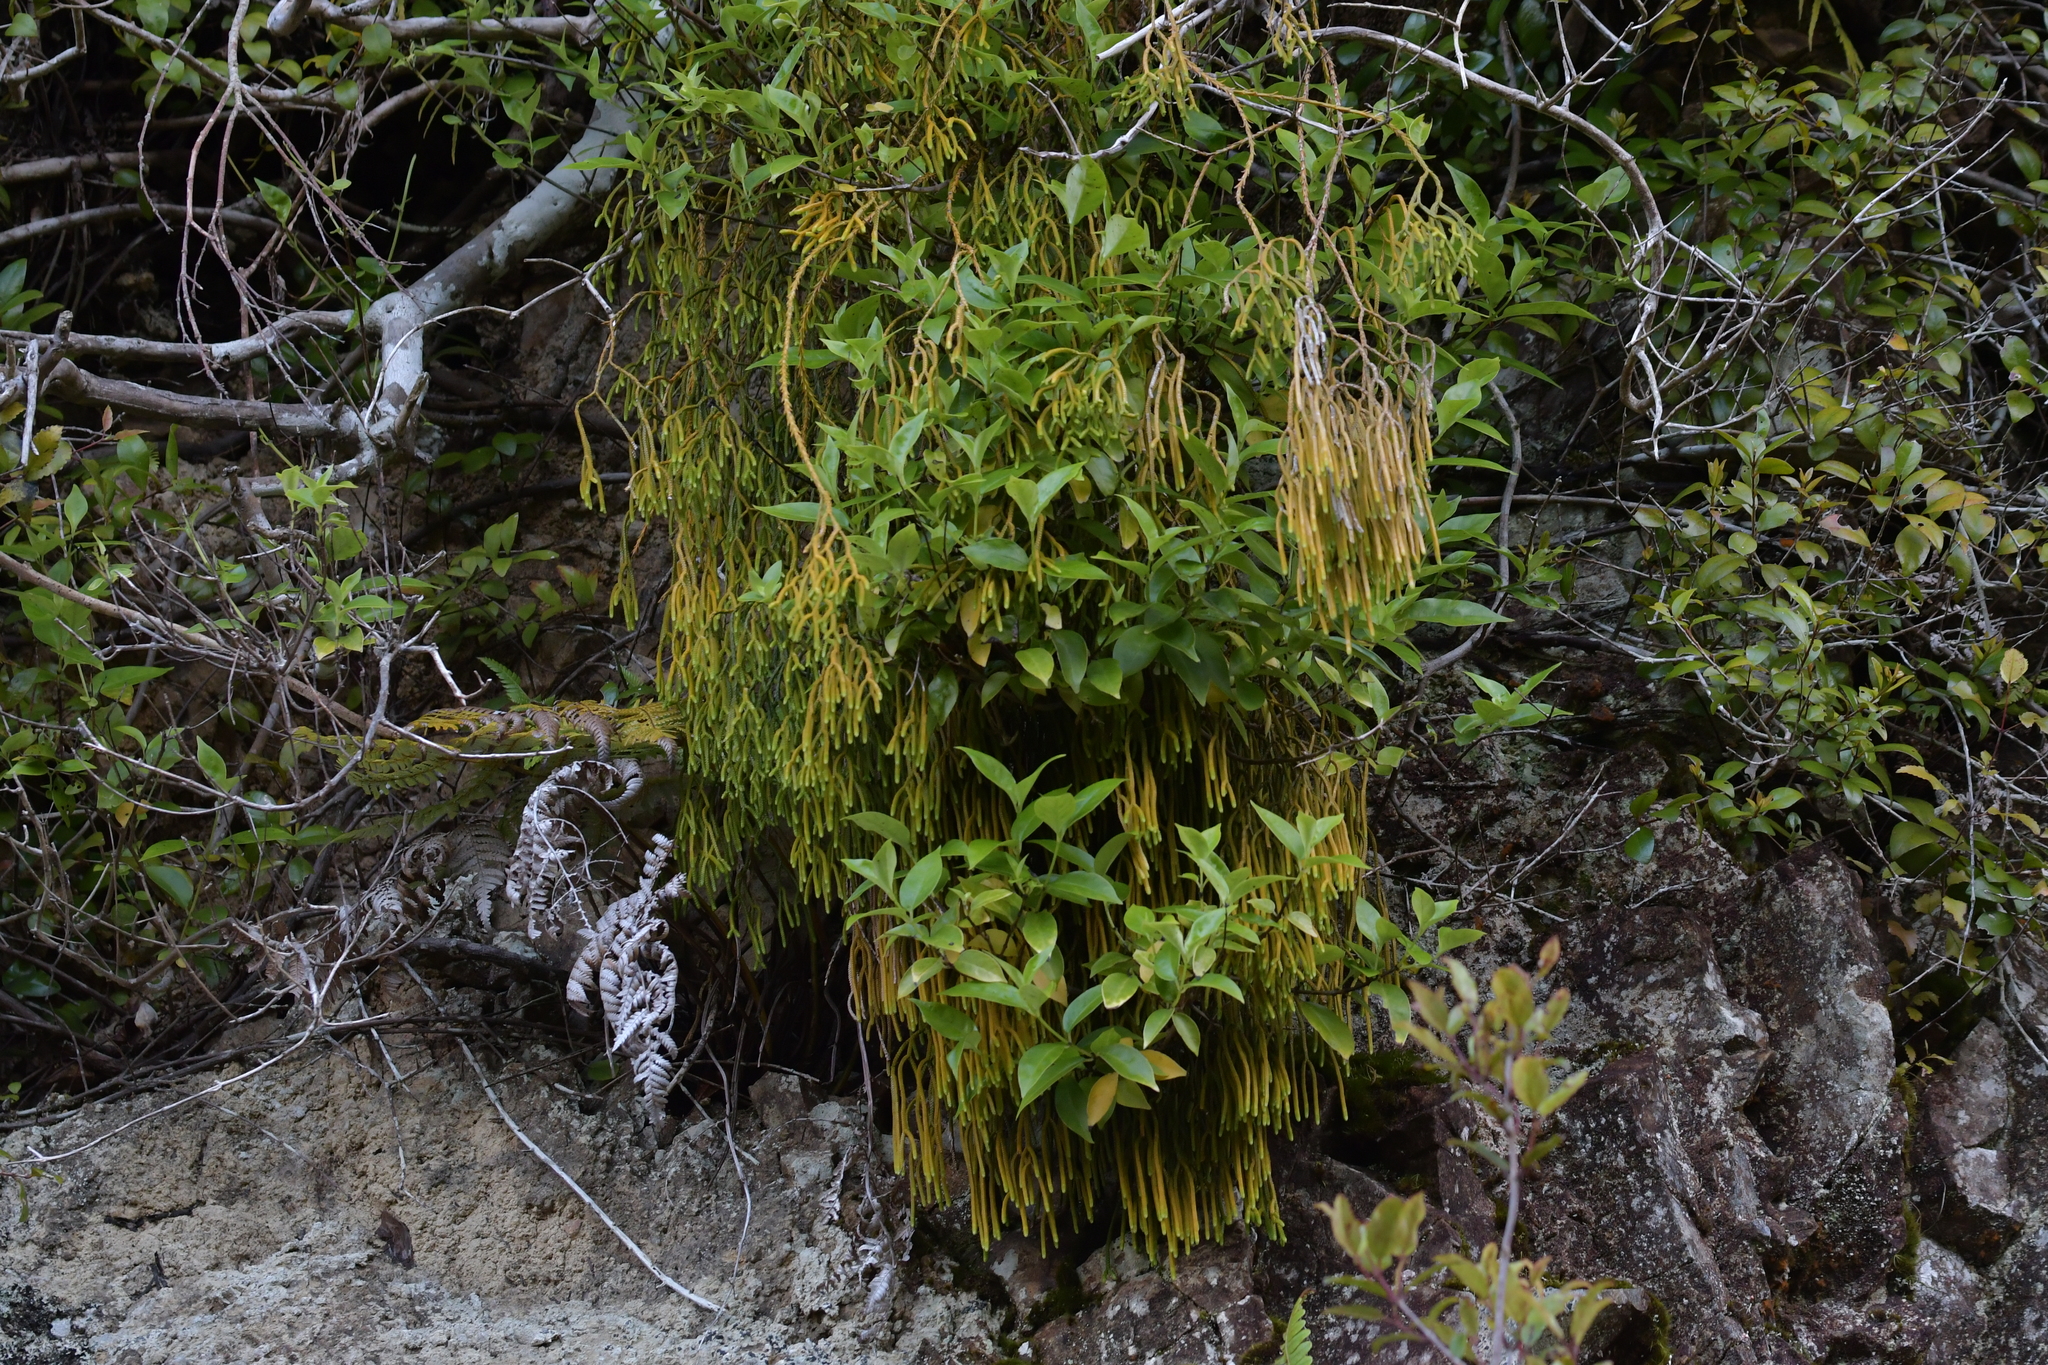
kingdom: Plantae
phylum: Tracheophyta
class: Lycopodiopsida
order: Lycopodiales
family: Lycopodiaceae
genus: Phlegmariurus
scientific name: Phlegmariurus billardierei
